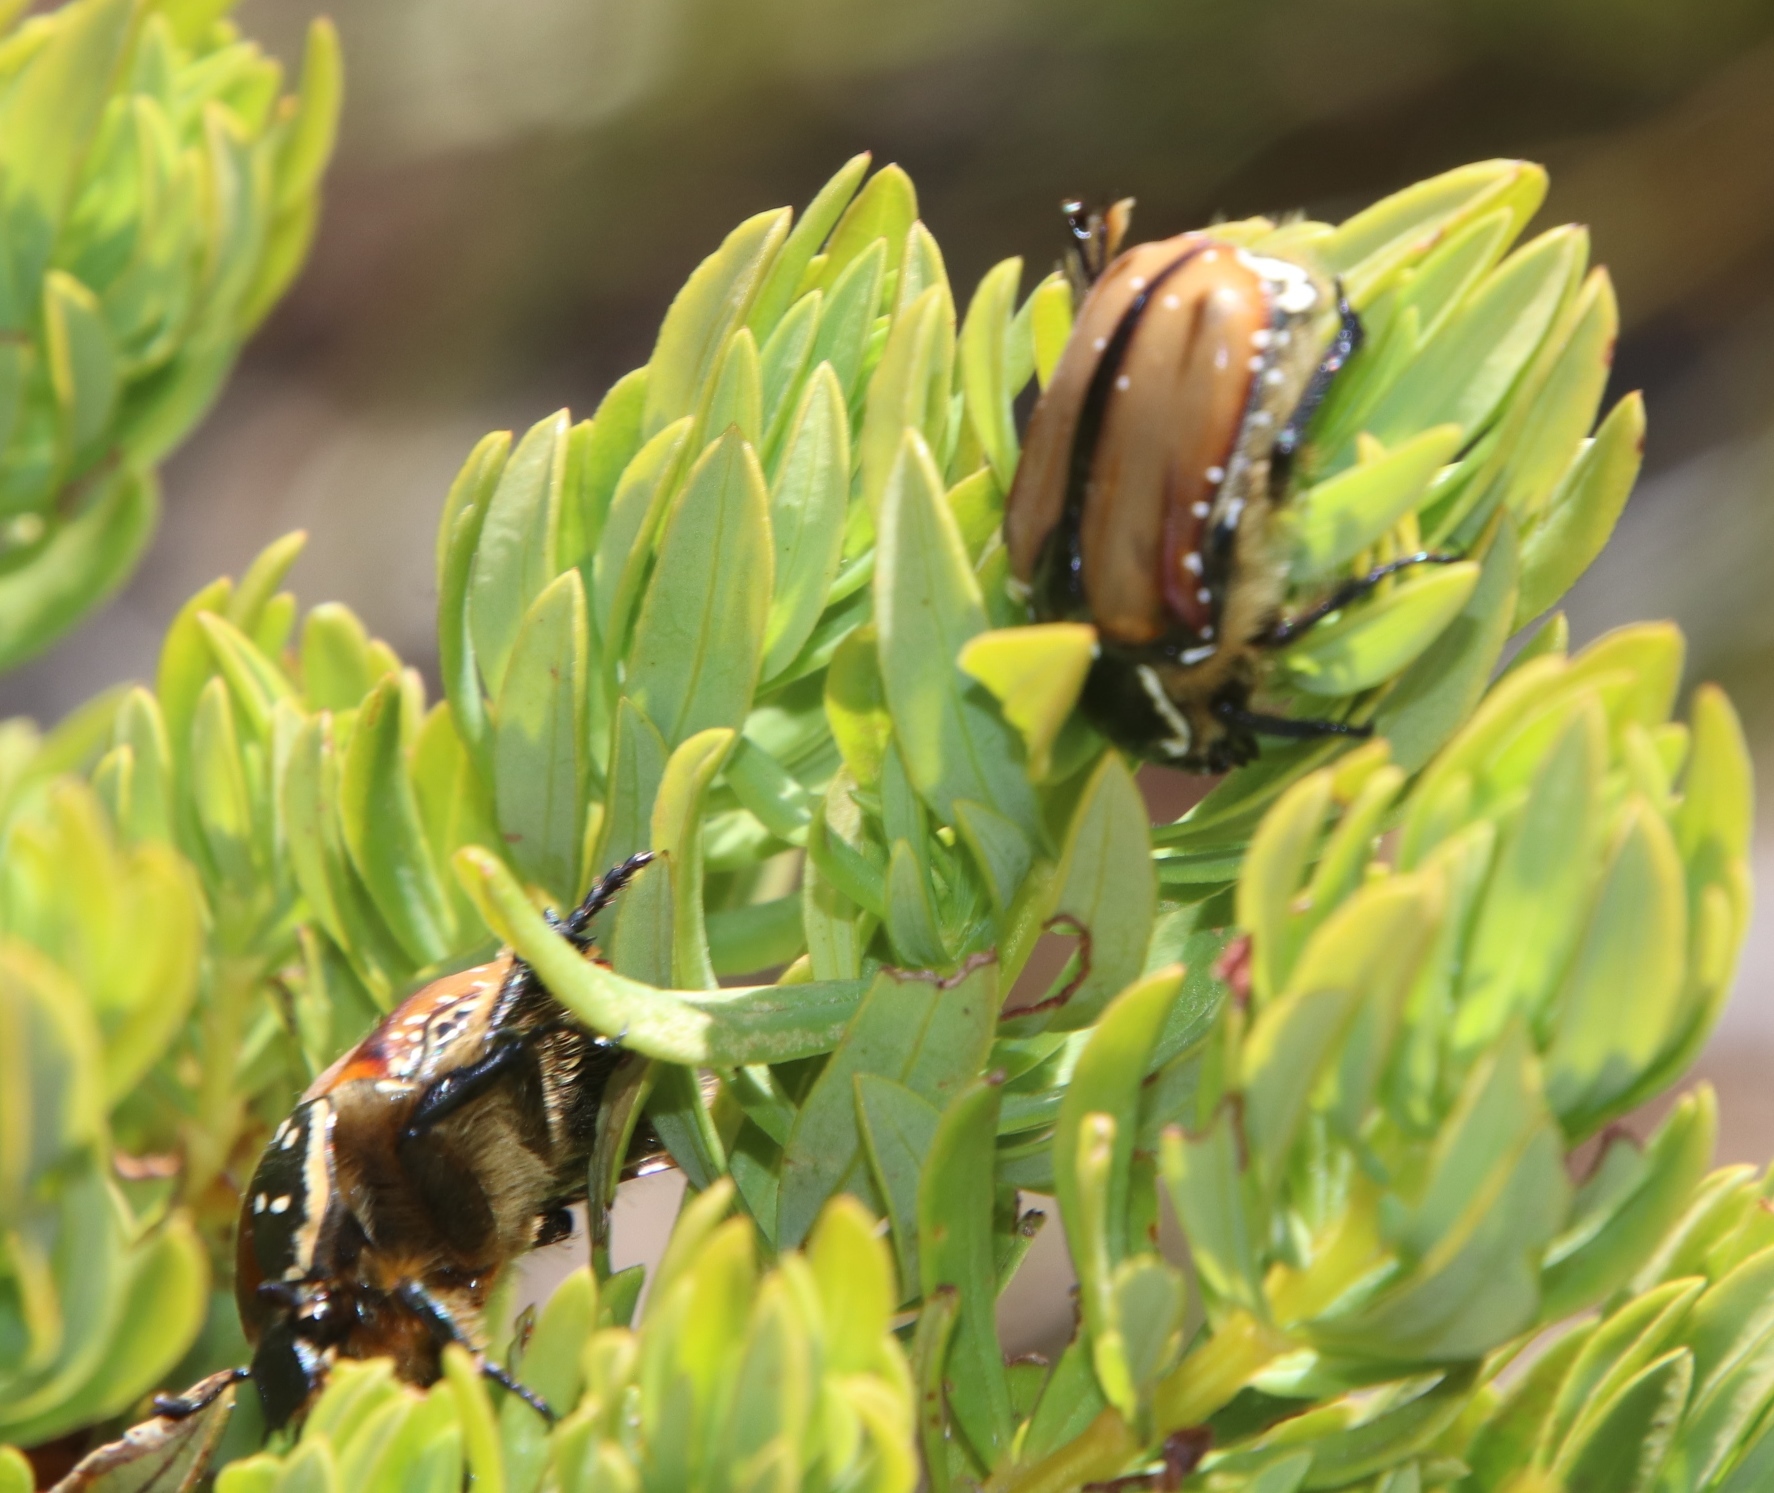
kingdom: Animalia
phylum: Arthropoda
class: Insecta
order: Coleoptera
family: Scarabaeidae
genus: Trichostetha
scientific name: Trichostetha signata
